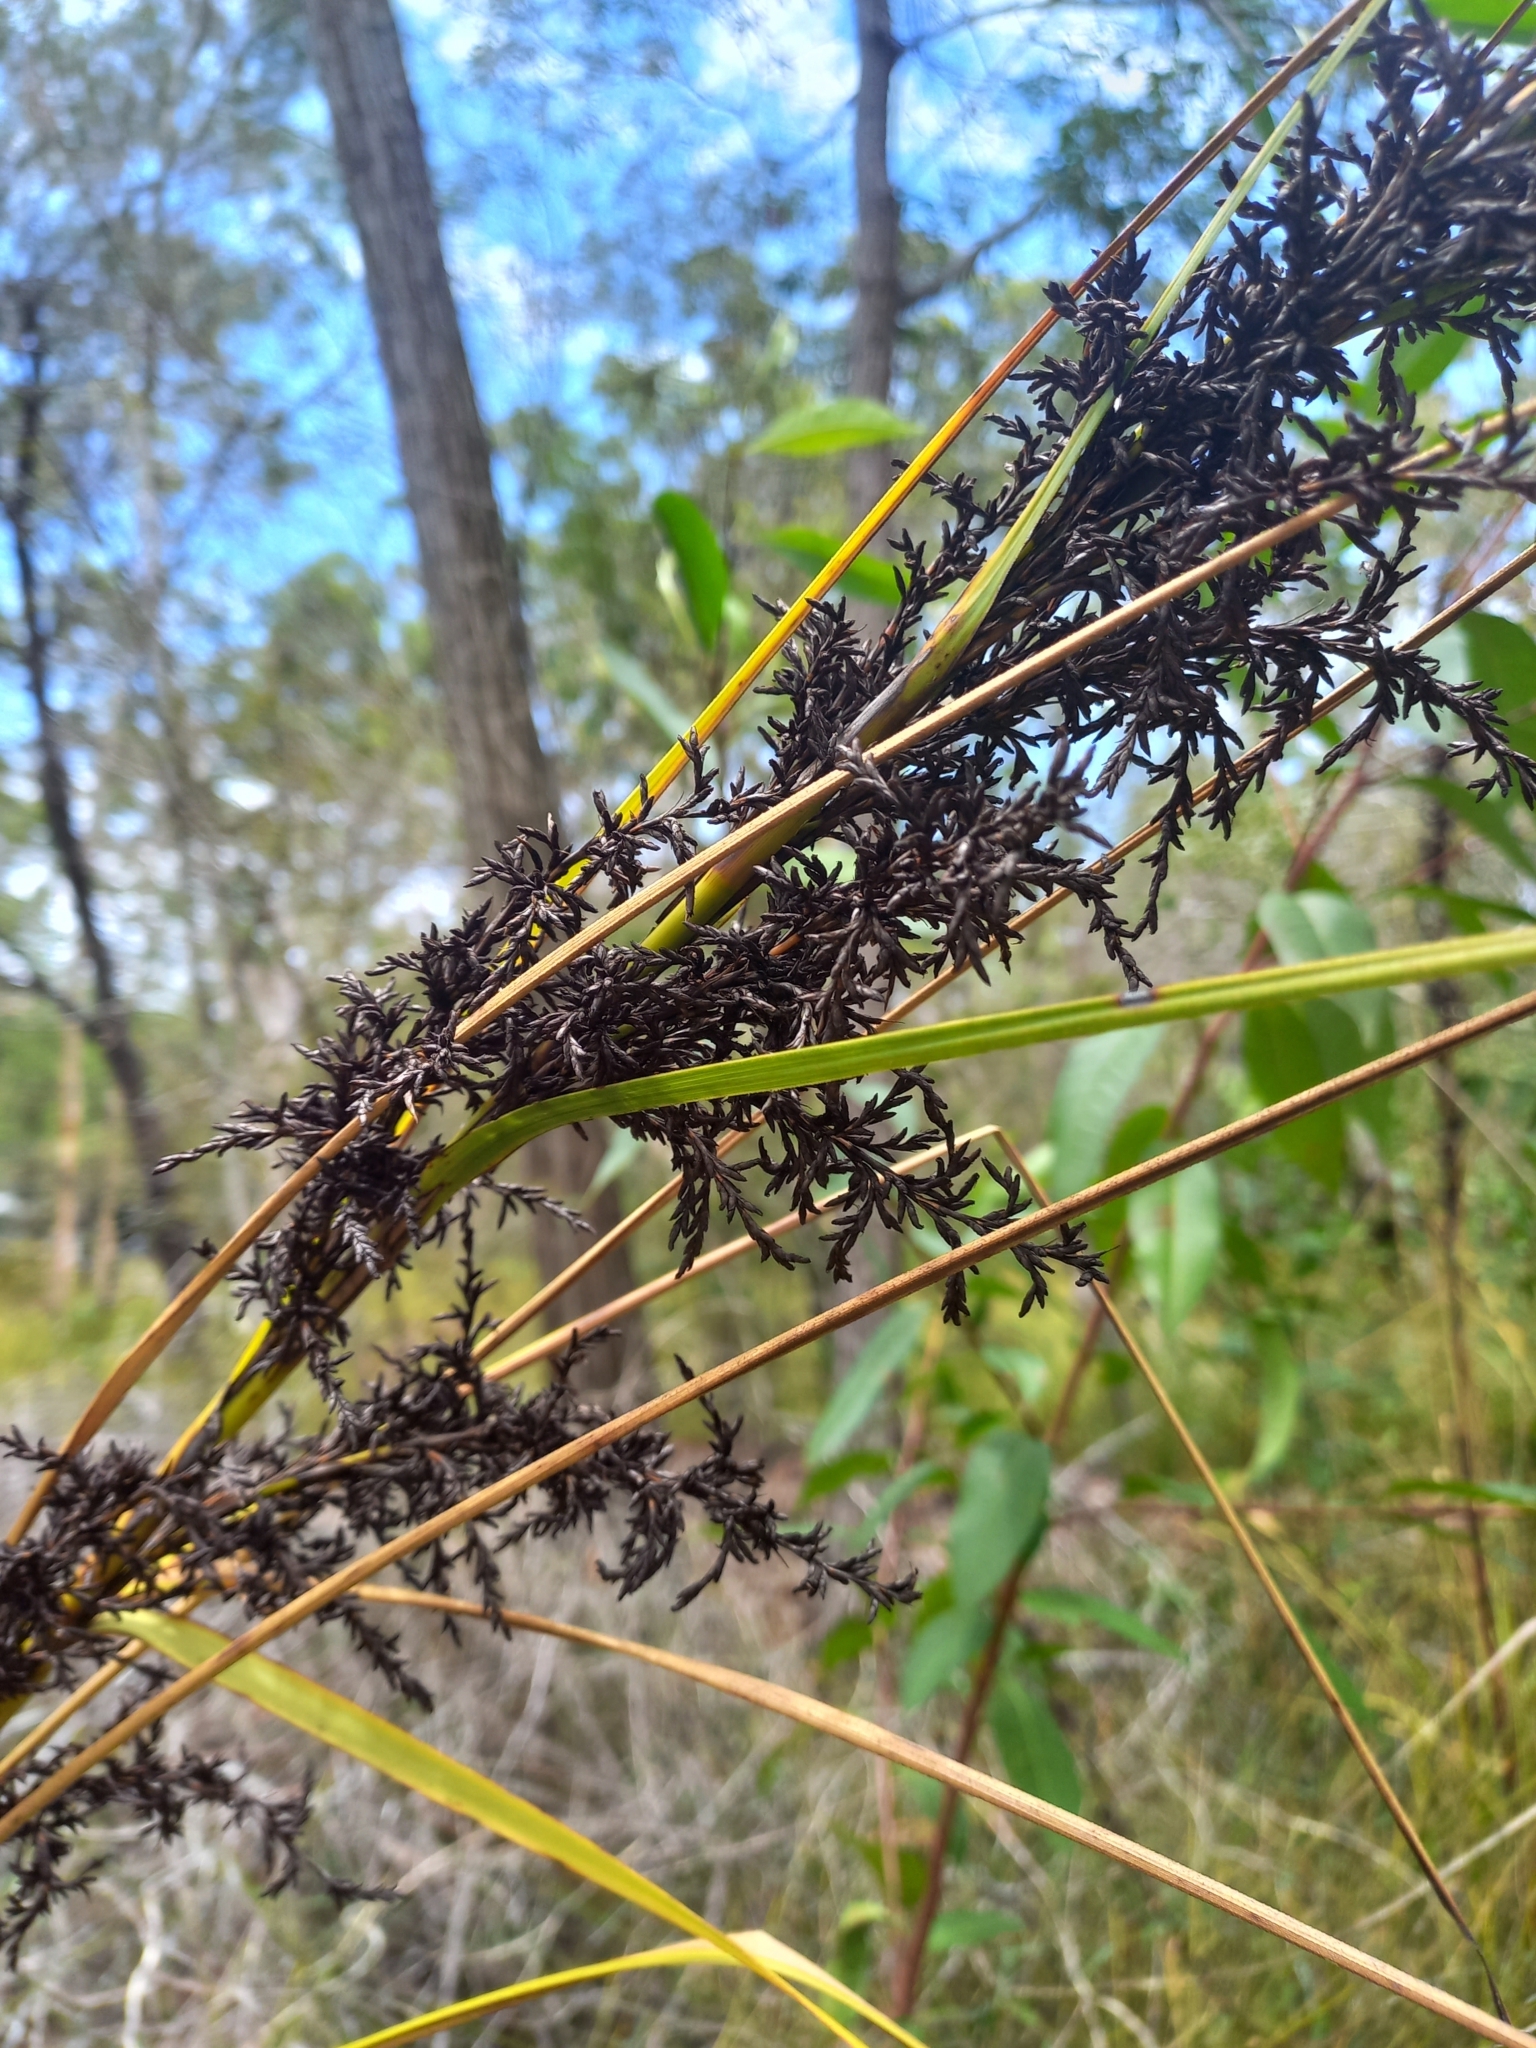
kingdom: Plantae
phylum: Tracheophyta
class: Liliopsida
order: Poales
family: Cyperaceae
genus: Gahnia
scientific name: Gahnia sieberiana
